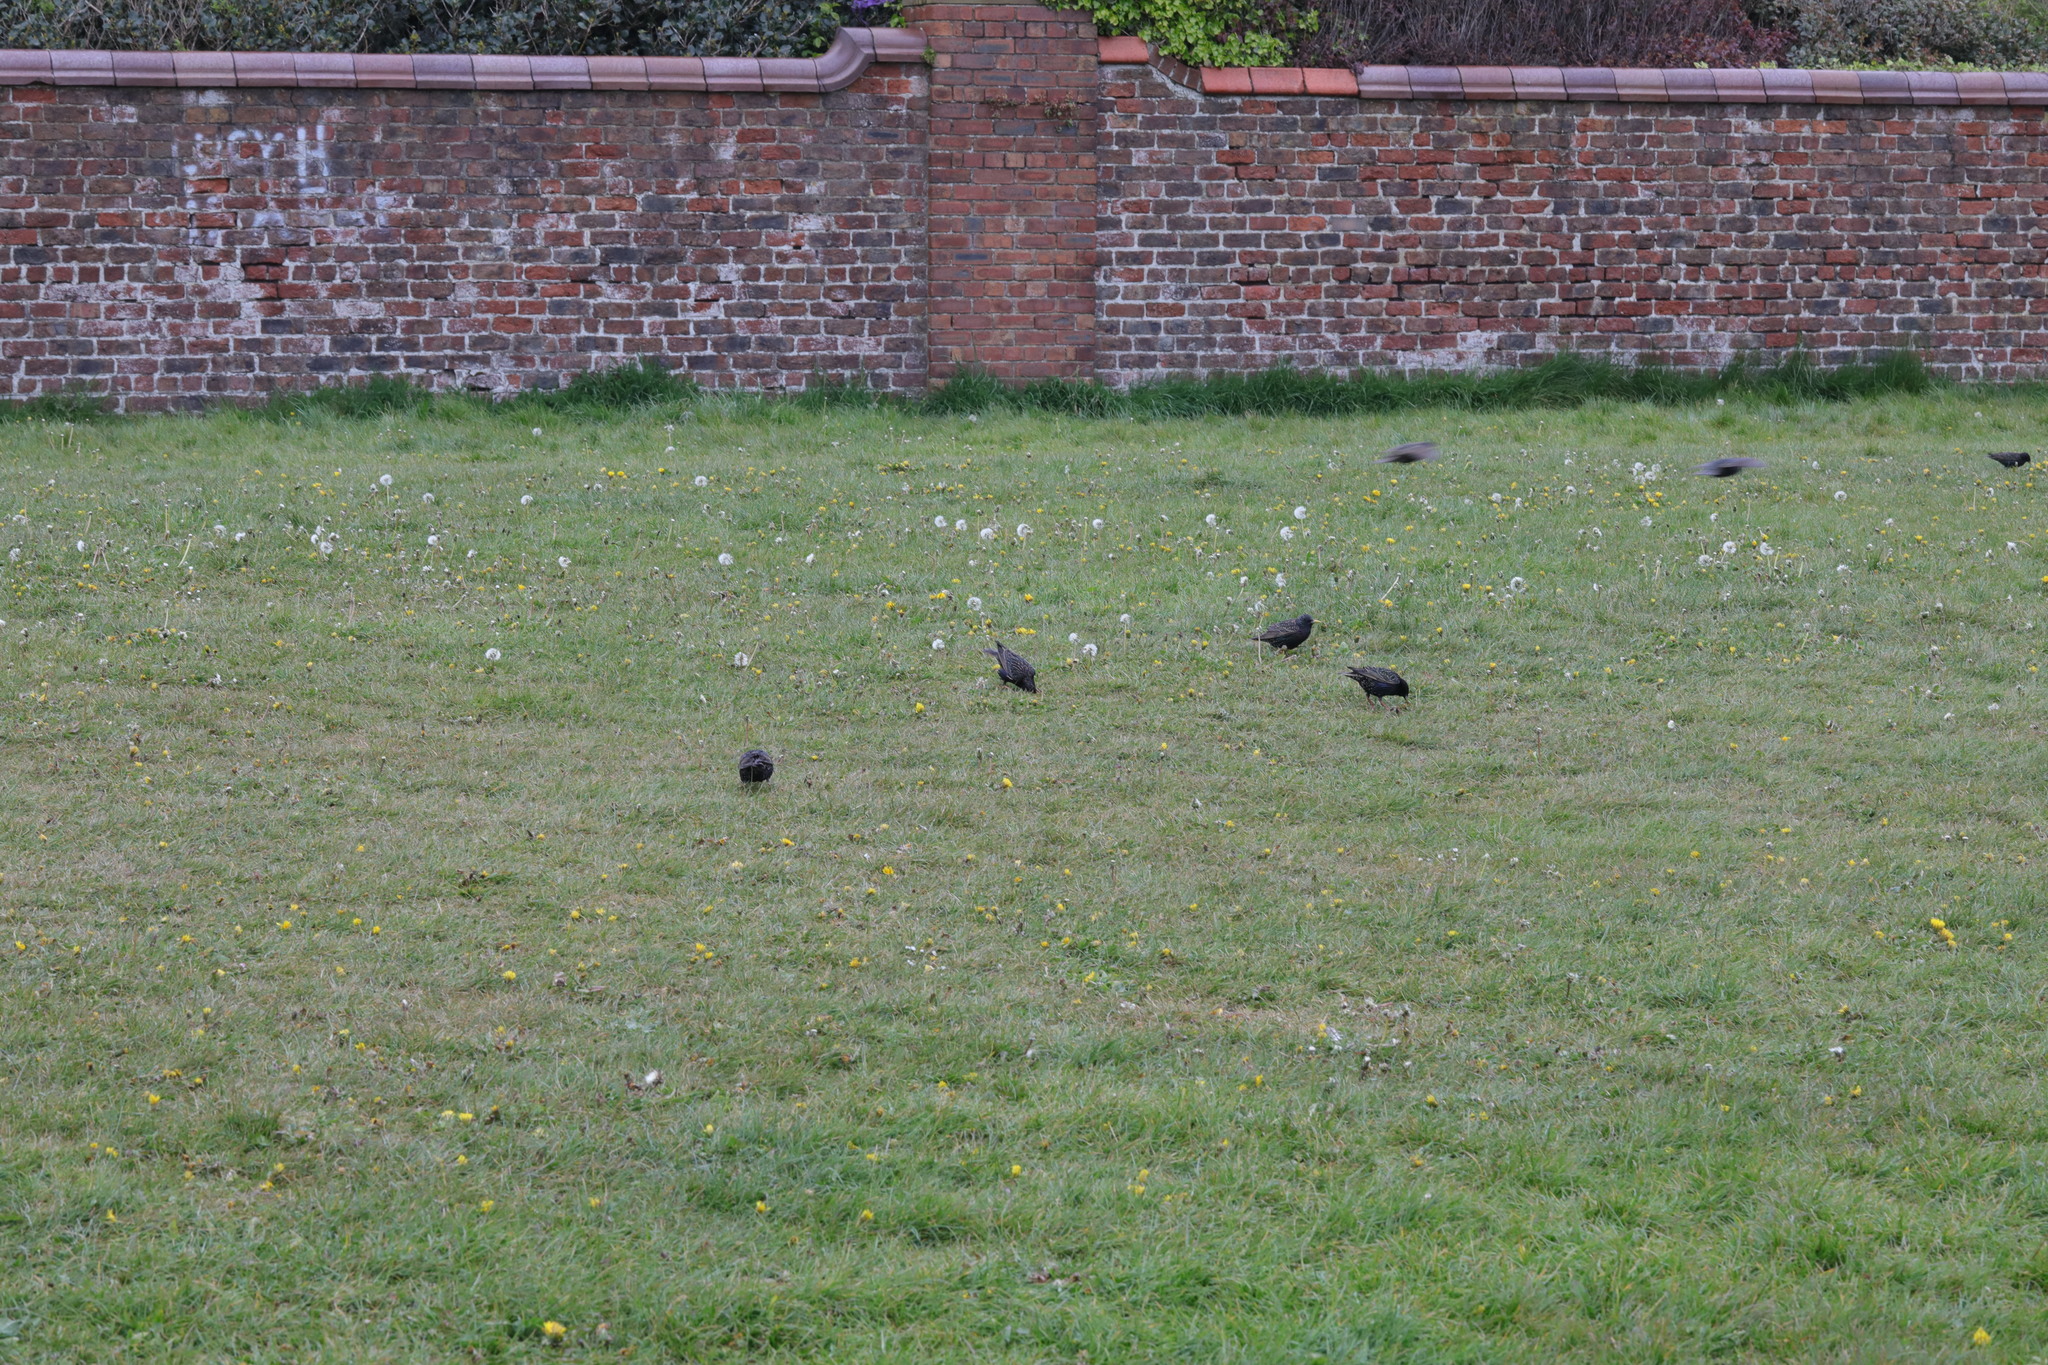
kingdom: Animalia
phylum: Chordata
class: Aves
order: Passeriformes
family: Sturnidae
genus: Sturnus
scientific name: Sturnus vulgaris
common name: Common starling
